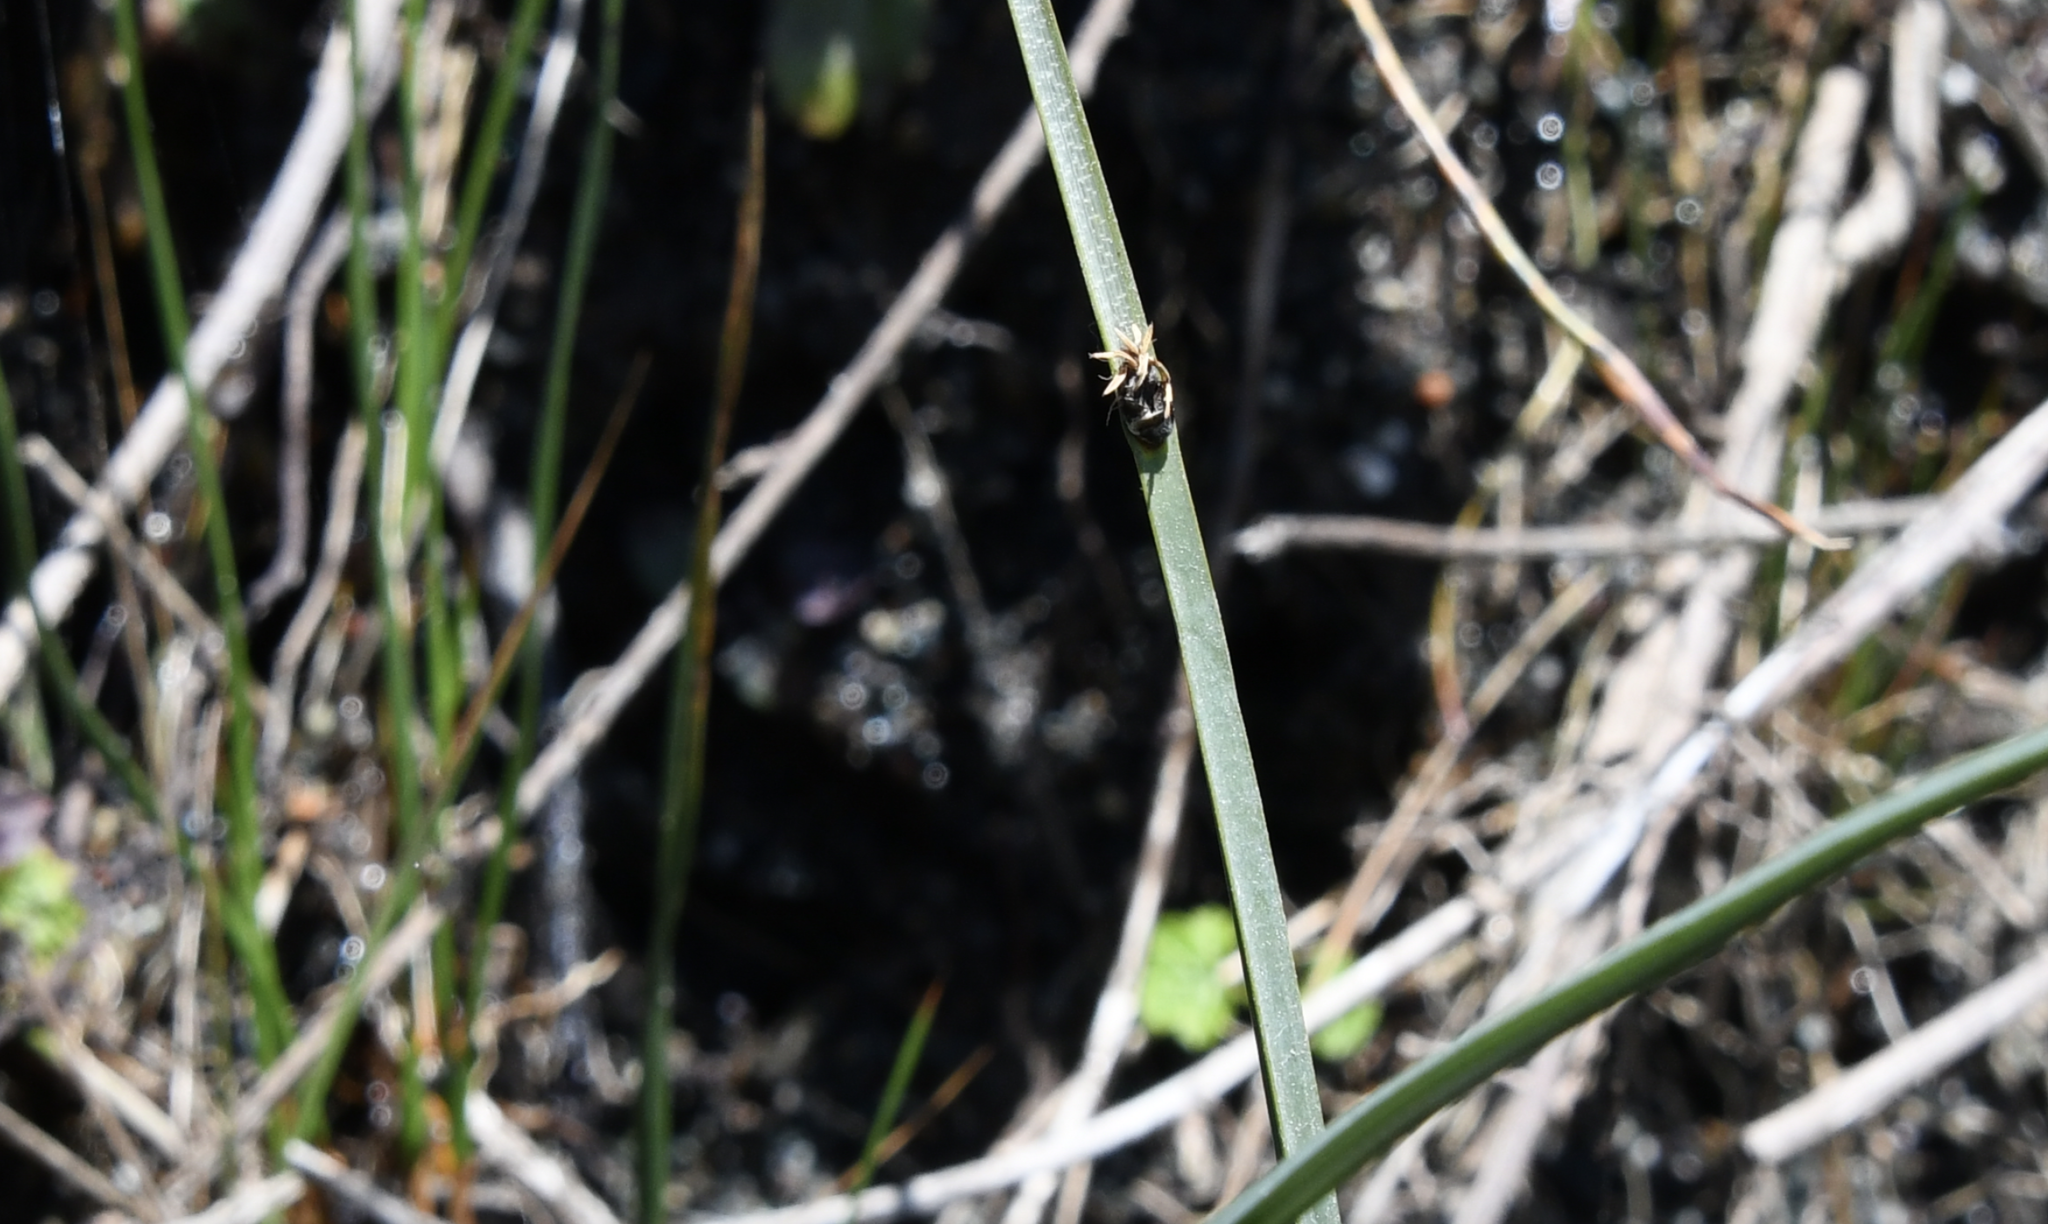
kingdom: Plantae
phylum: Tracheophyta
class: Liliopsida
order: Poales
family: Cyperaceae
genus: Schoenoplectus
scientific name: Schoenoplectus pungens
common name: Sharp club-rush
